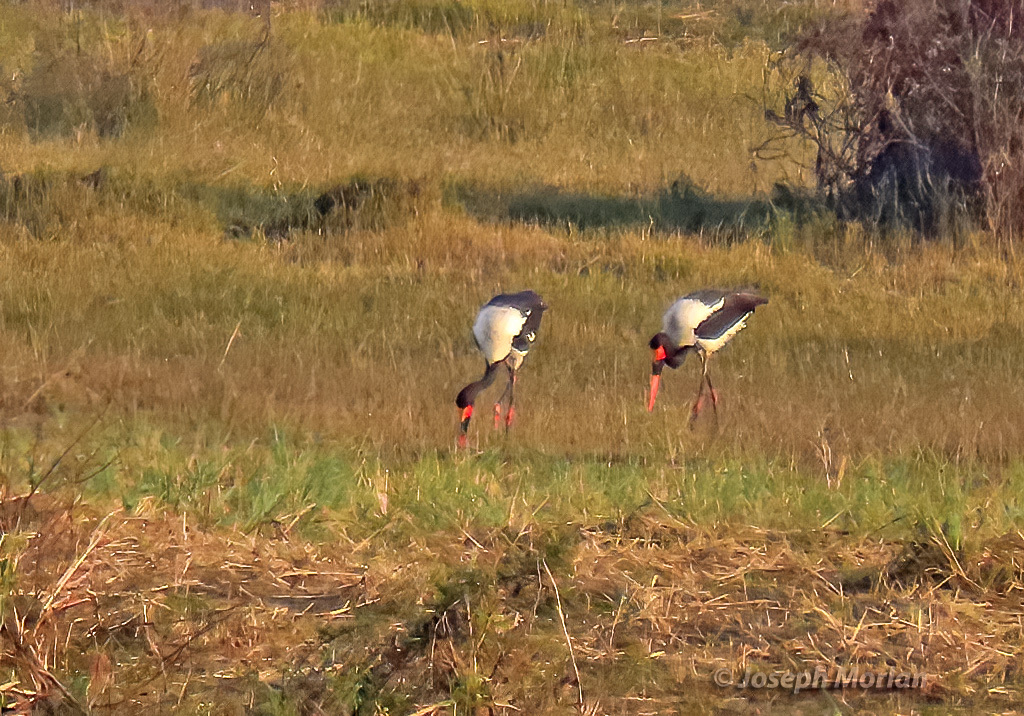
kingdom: Animalia
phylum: Chordata
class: Aves
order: Ciconiiformes
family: Ciconiidae
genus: Ephippiorhynchus
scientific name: Ephippiorhynchus senegalensis
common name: Saddle-billed stork
